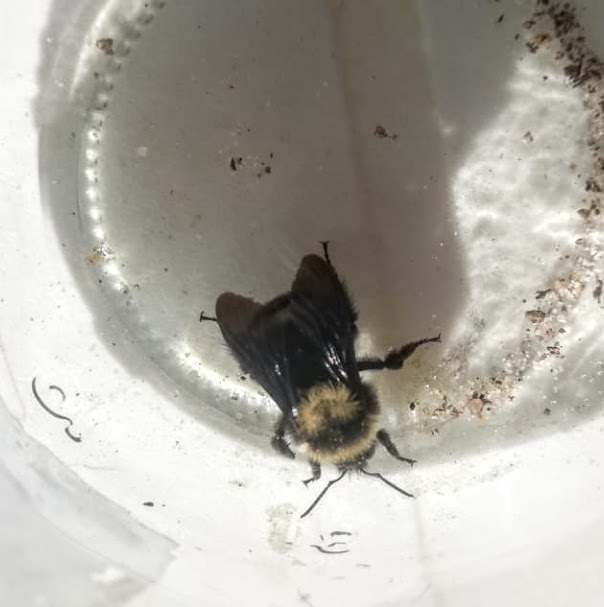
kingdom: Animalia
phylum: Arthropoda
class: Insecta
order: Hymenoptera
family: Apidae
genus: Bombus
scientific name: Bombus pauloensis
